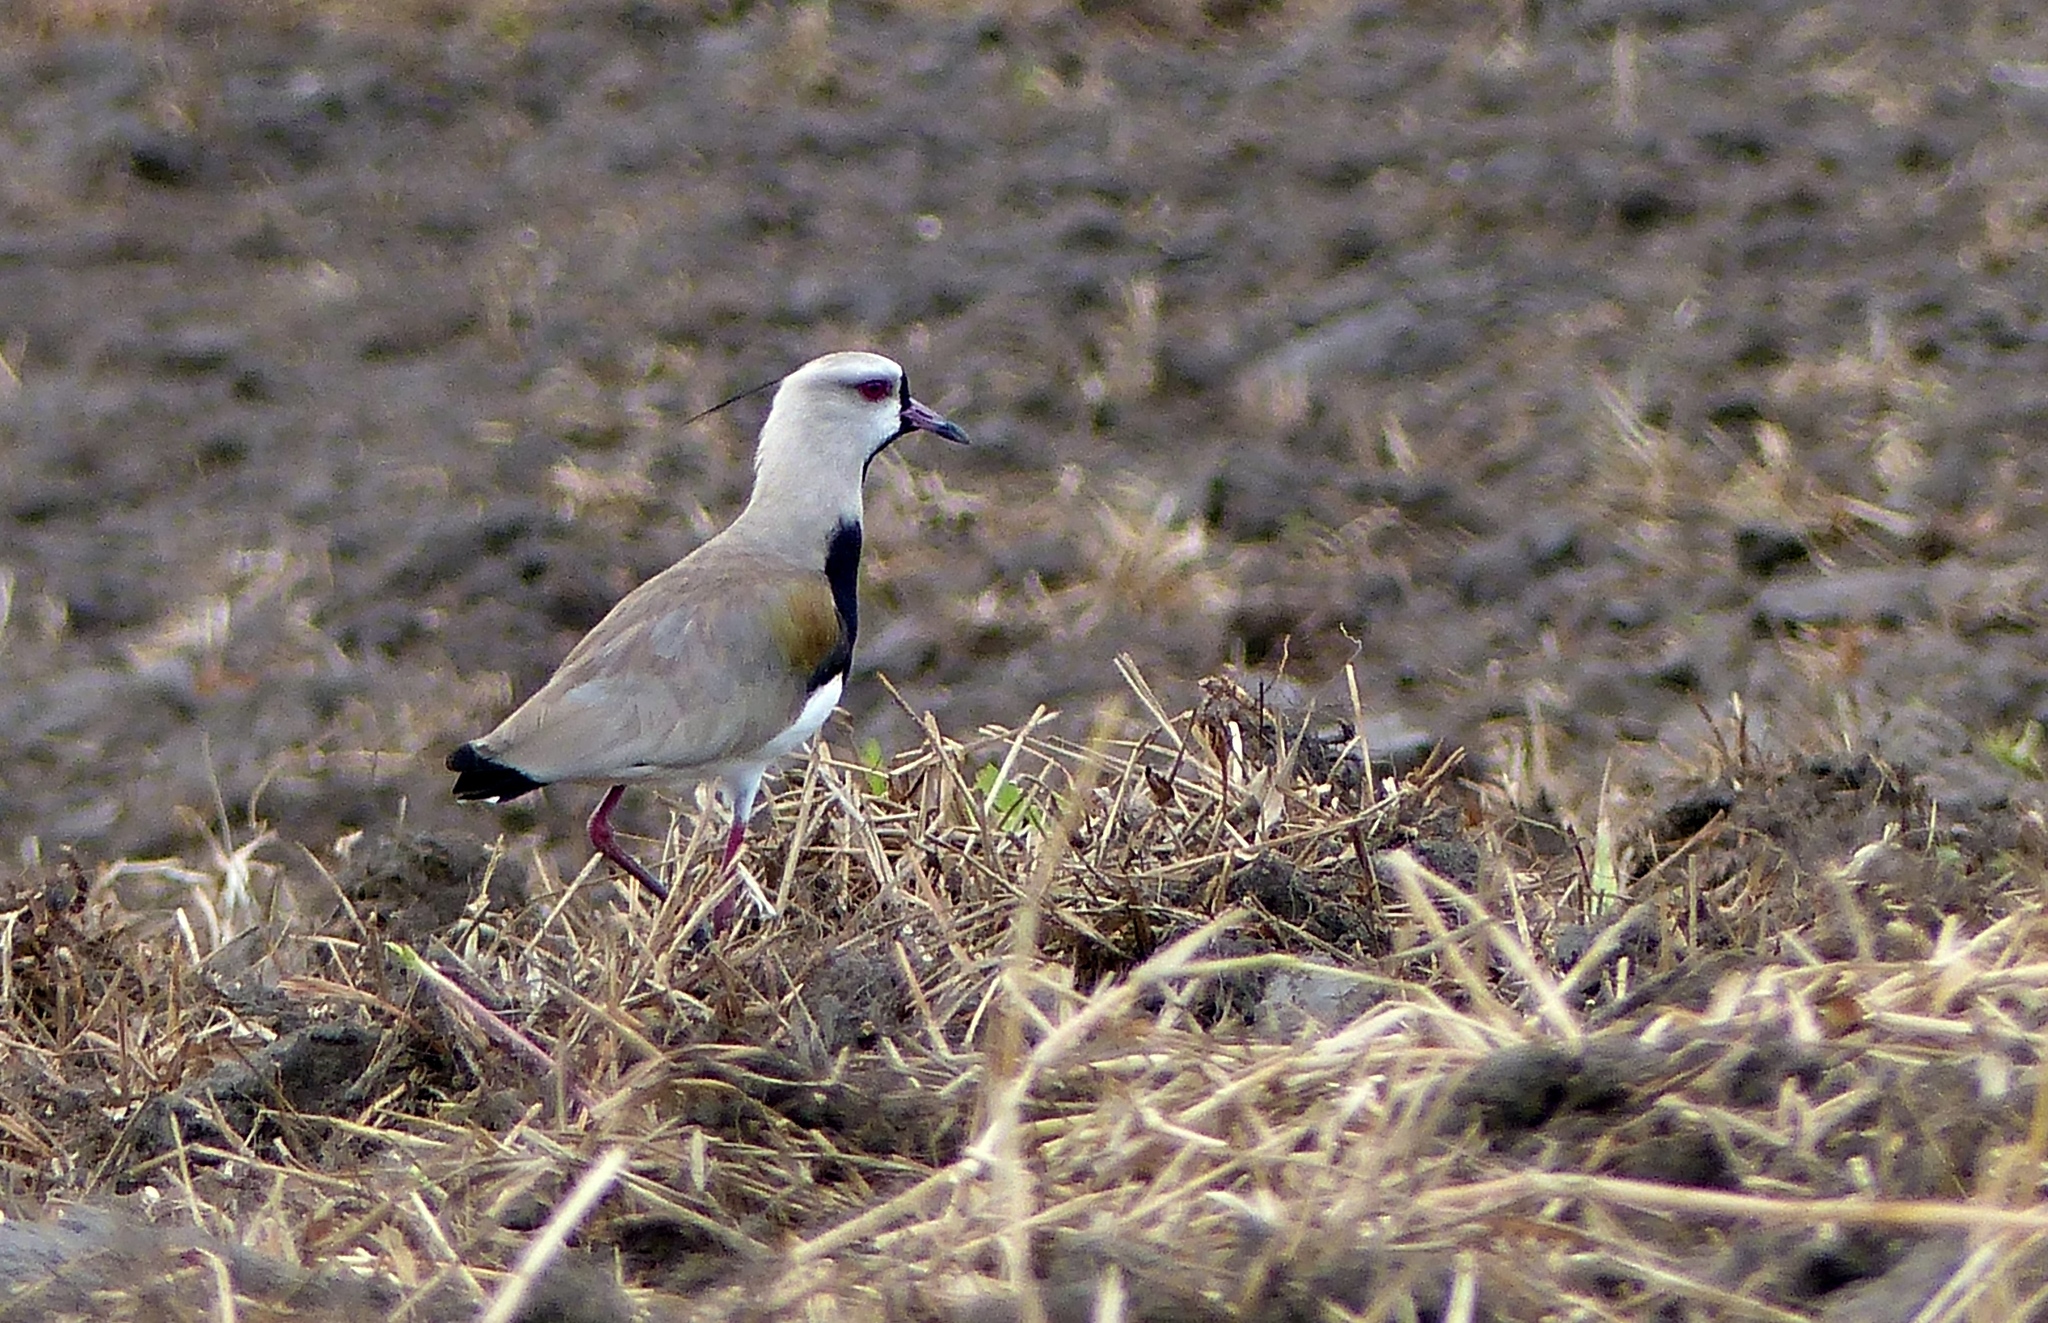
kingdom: Animalia
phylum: Chordata
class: Aves
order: Charadriiformes
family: Charadriidae
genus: Vanellus
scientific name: Vanellus chilensis
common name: Southern lapwing
